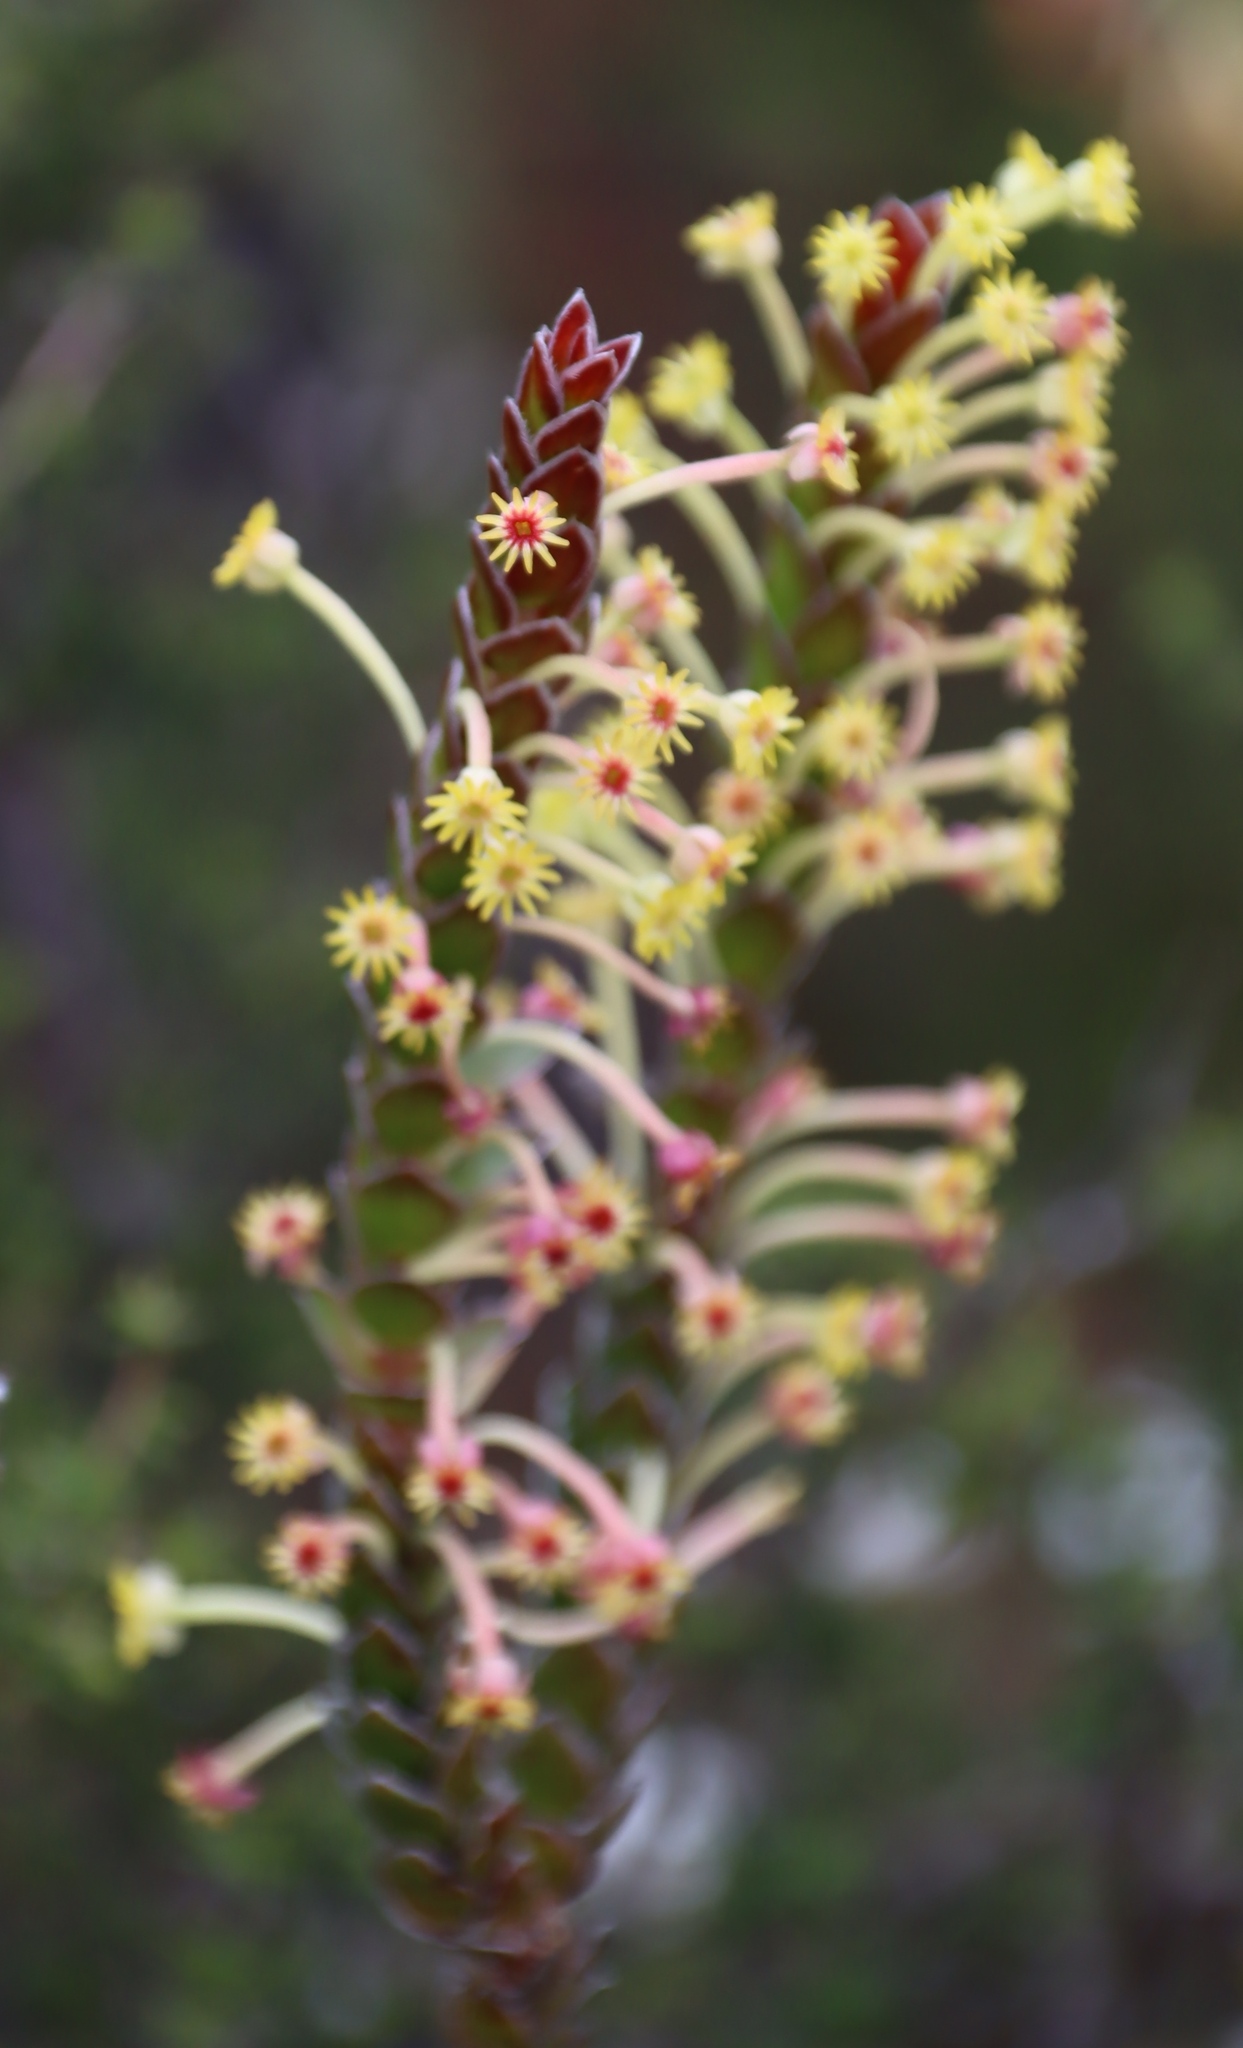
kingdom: Plantae
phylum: Tracheophyta
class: Magnoliopsida
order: Malvales
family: Thymelaeaceae
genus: Struthiola
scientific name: Struthiola argentea
